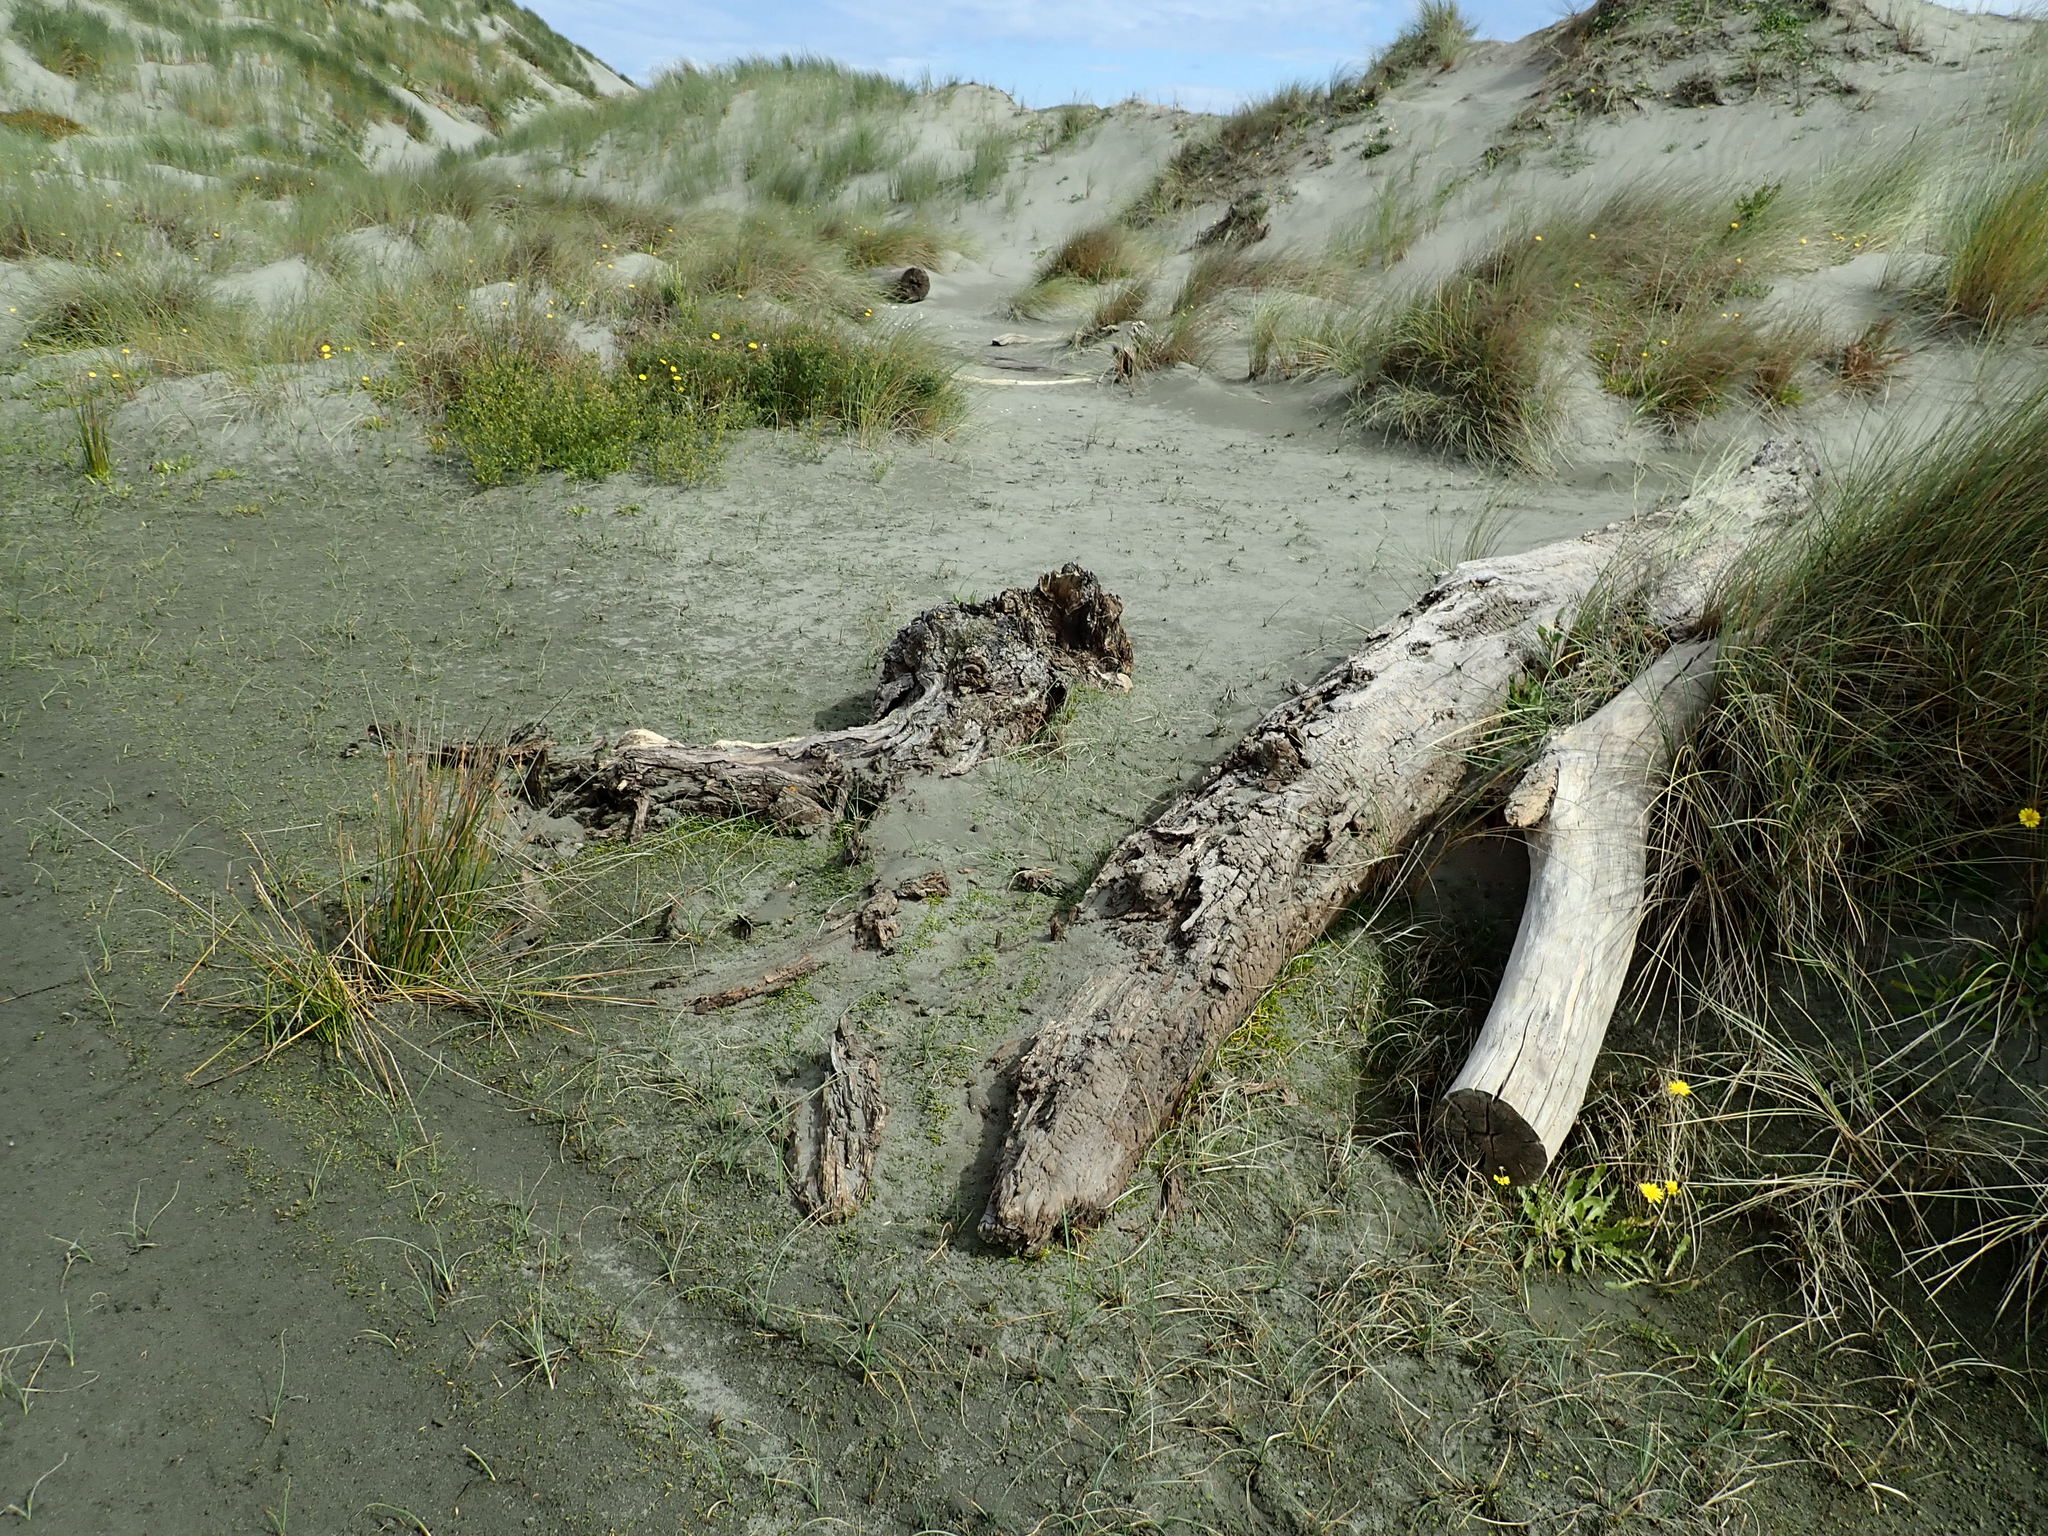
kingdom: Plantae
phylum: Tracheophyta
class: Magnoliopsida
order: Apiales
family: Apiaceae
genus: Lilaeopsis
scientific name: Lilaeopsis novae-zelandiae
